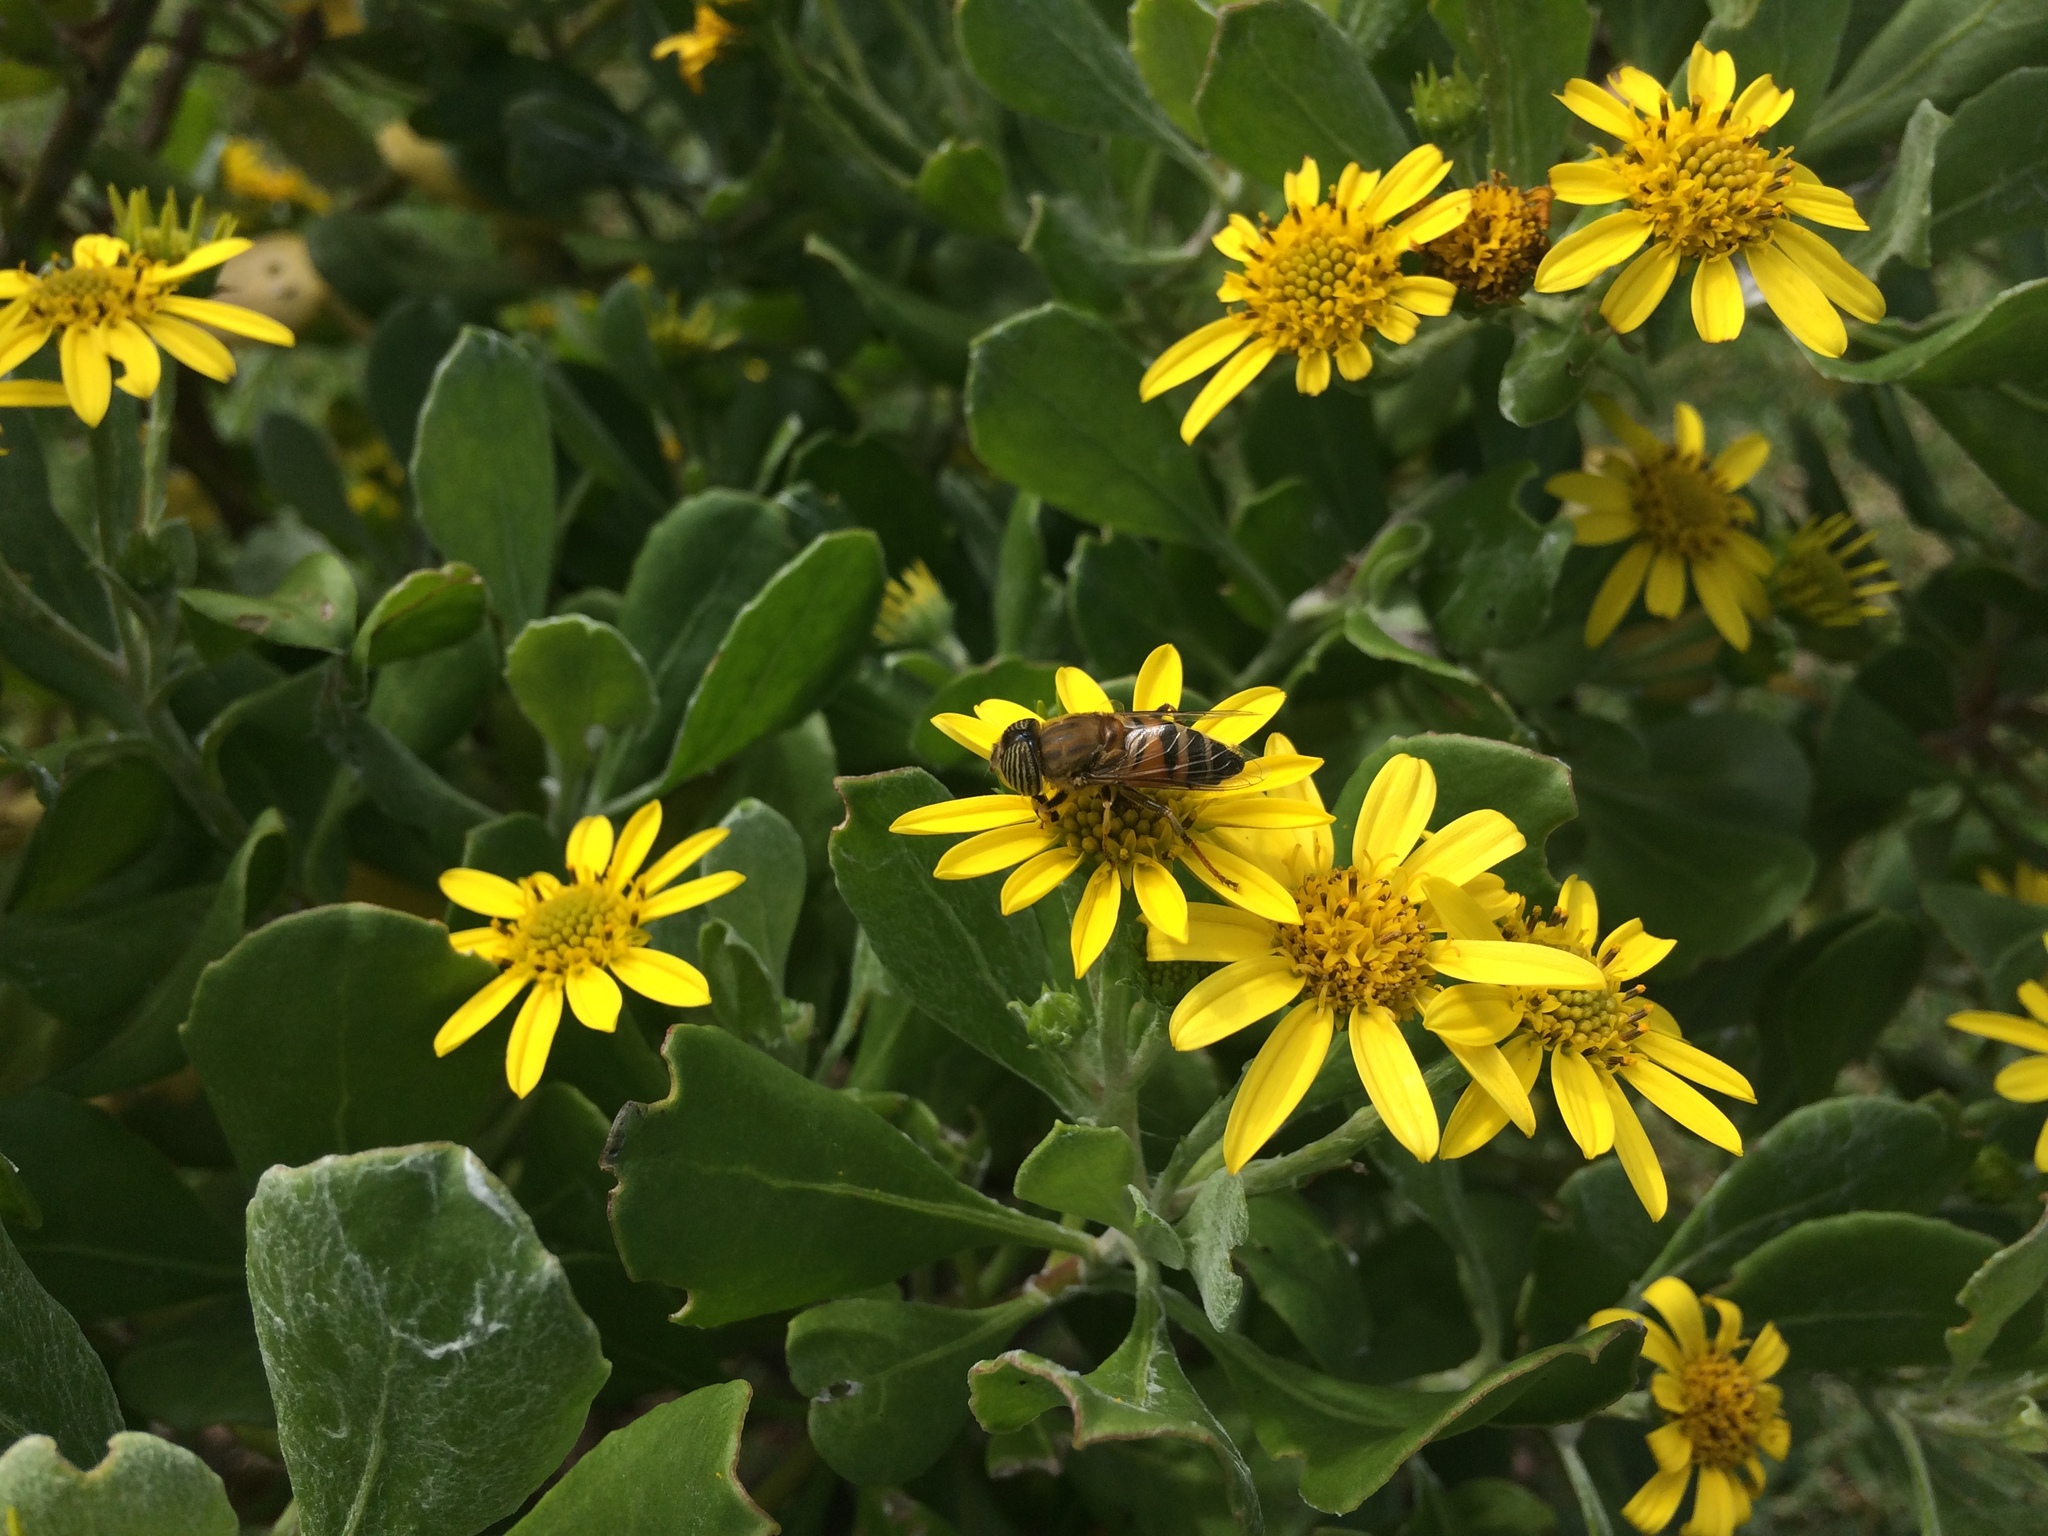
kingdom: Animalia
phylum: Arthropoda
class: Insecta
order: Diptera
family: Syrphidae
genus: Eristalinus
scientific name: Eristalinus taeniops
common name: Syrphid fly
